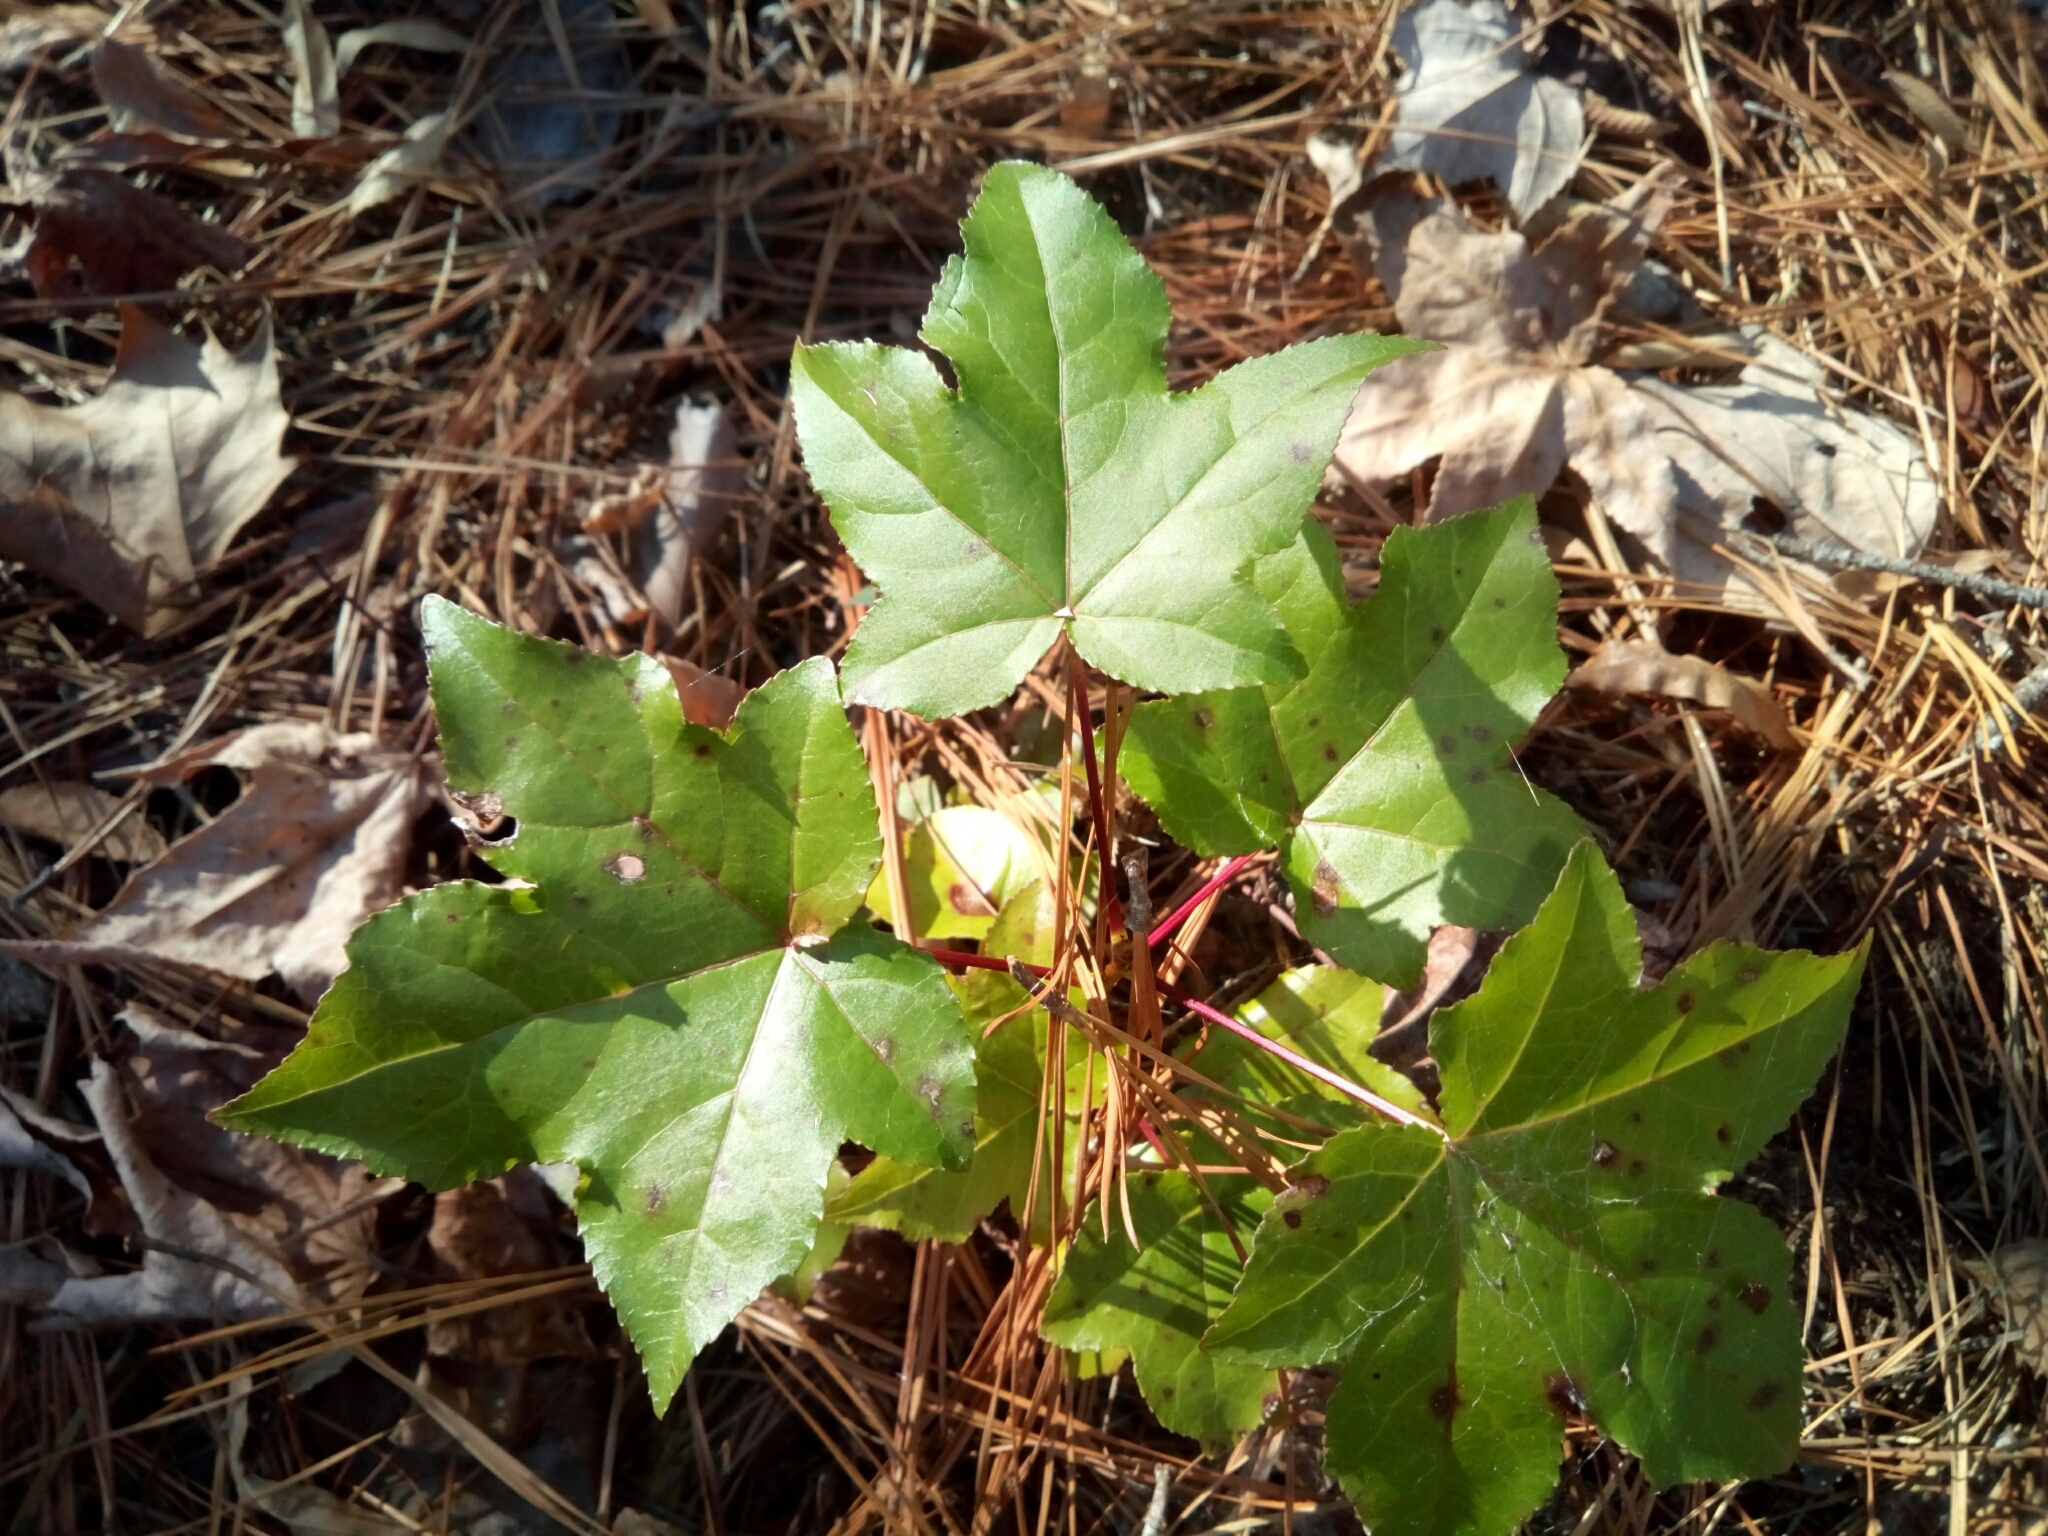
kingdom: Plantae
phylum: Tracheophyta
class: Magnoliopsida
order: Saxifragales
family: Altingiaceae
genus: Liquidambar
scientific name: Liquidambar styraciflua
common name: Sweet gum
